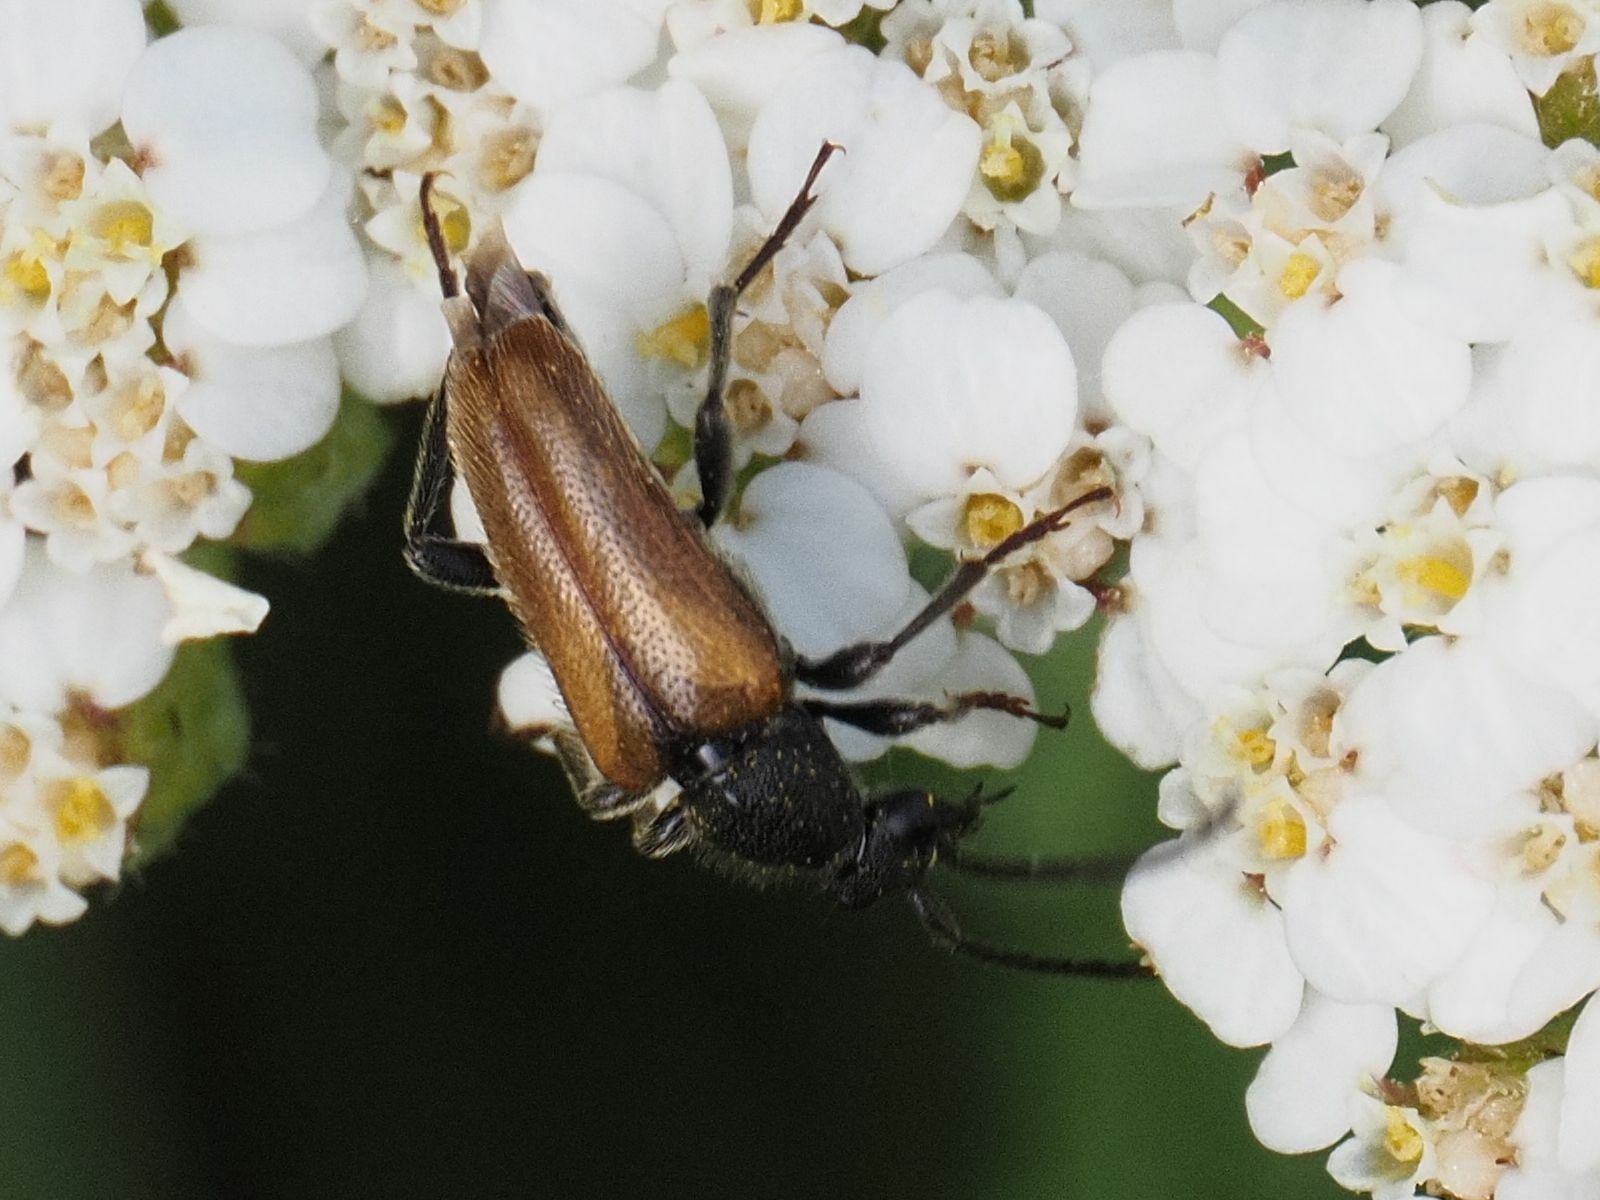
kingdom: Animalia
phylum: Arthropoda
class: Insecta
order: Coleoptera
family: Cerambycidae
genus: Pseudovadonia
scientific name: Pseudovadonia livida
